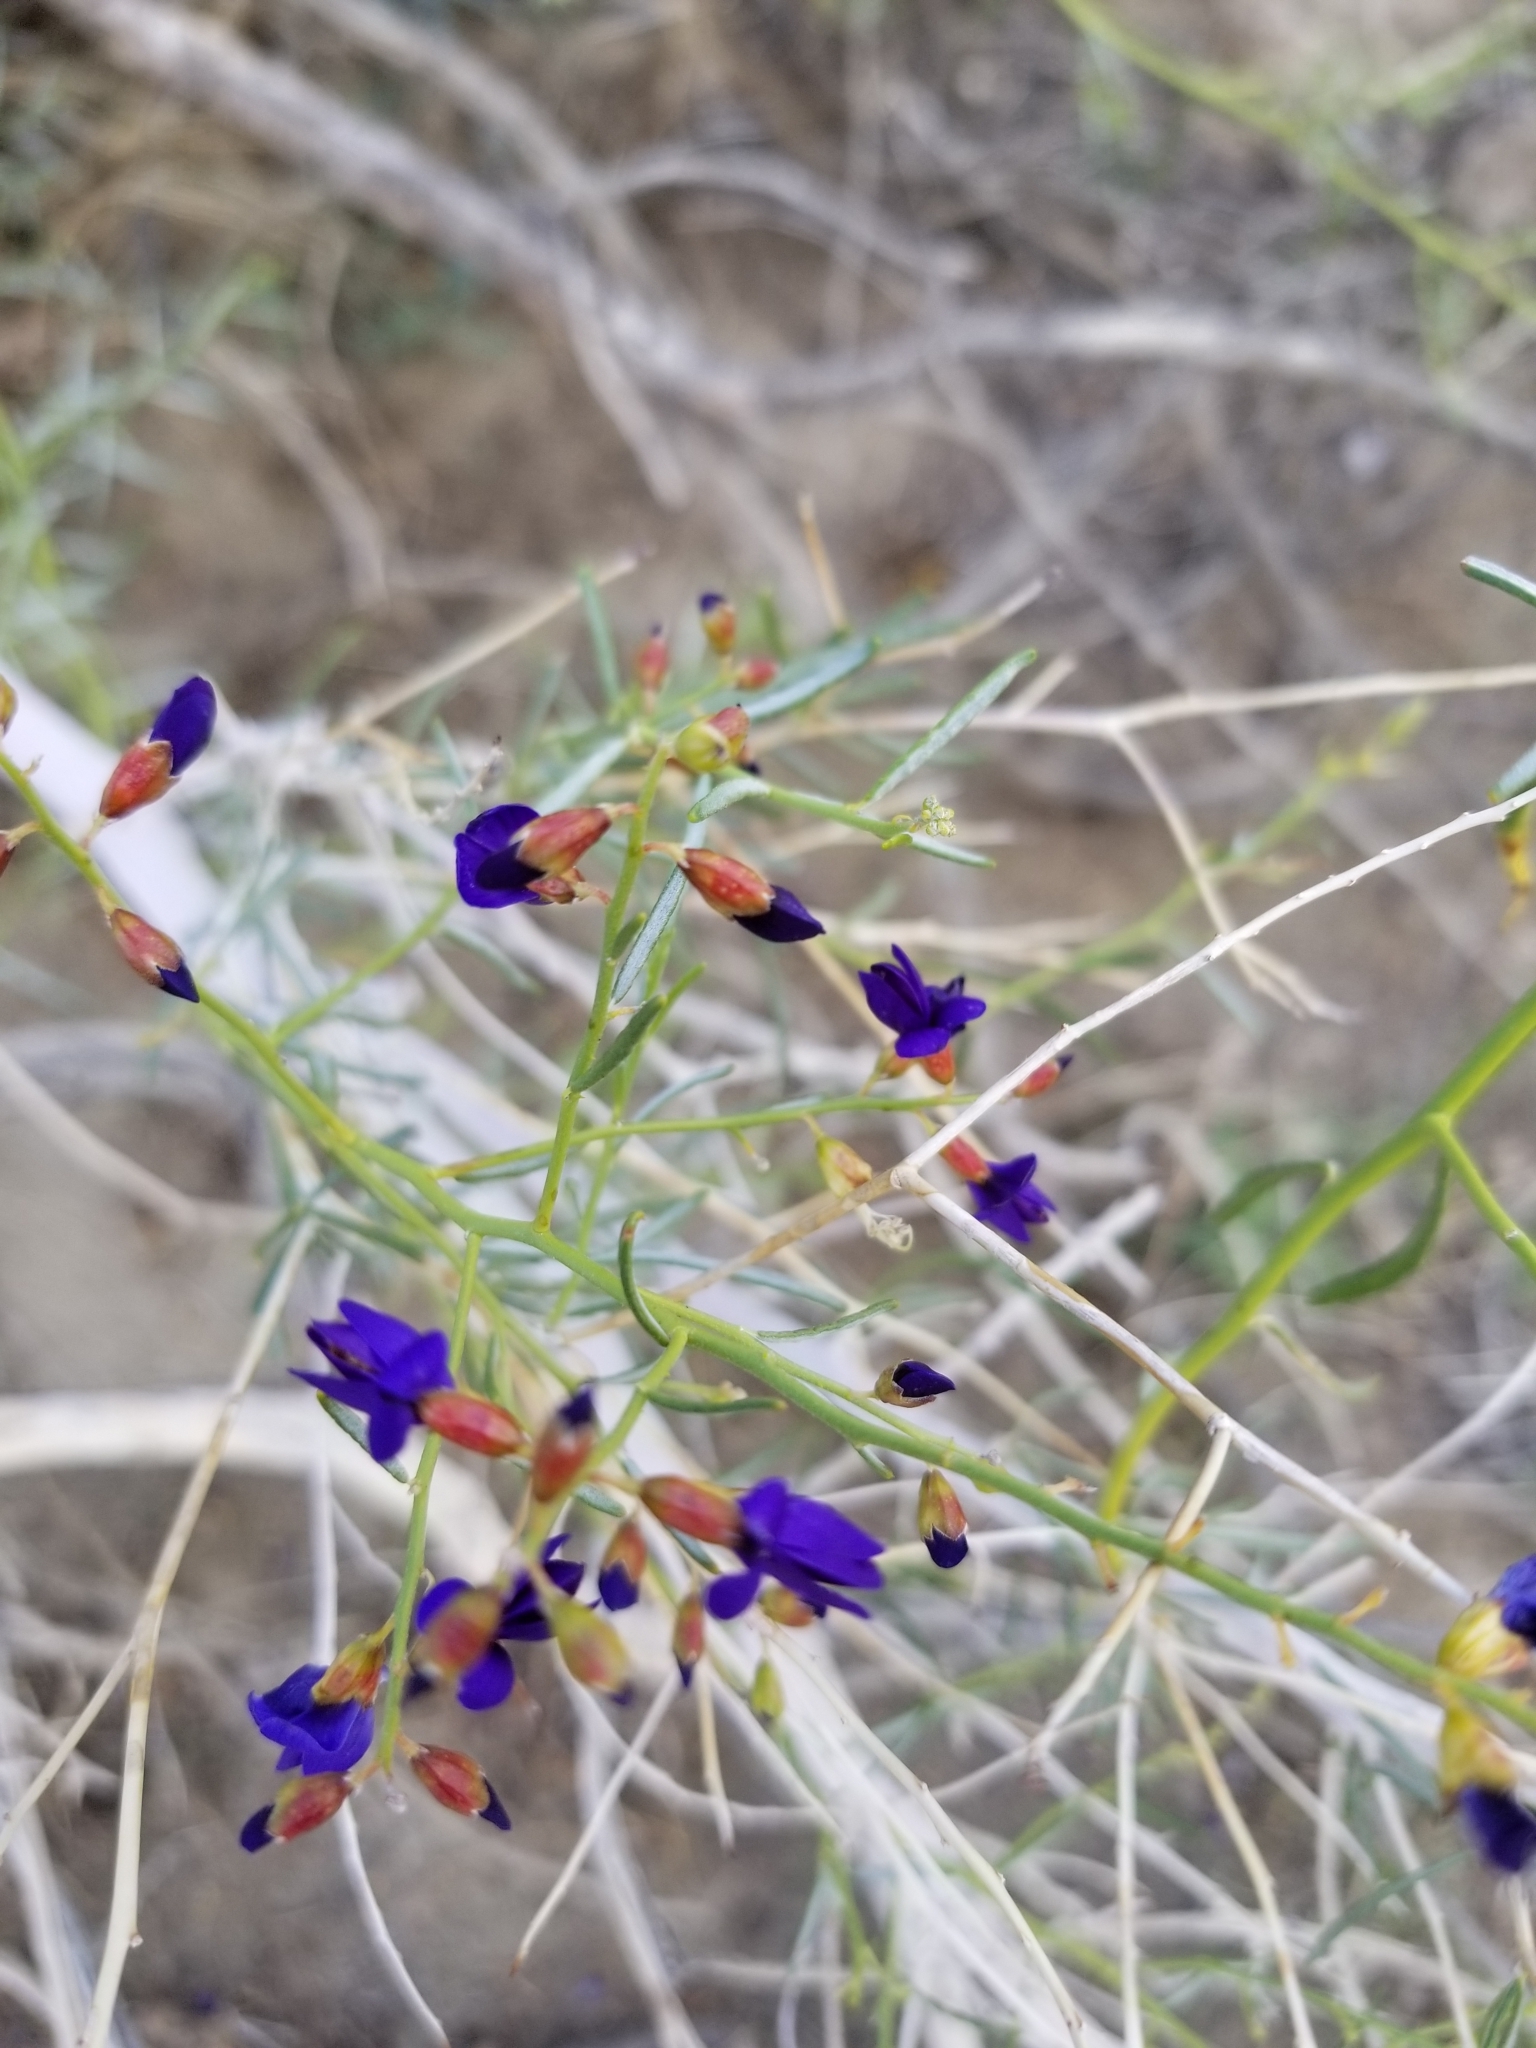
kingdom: Plantae
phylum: Tracheophyta
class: Magnoliopsida
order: Fabales
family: Fabaceae
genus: Psorothamnus
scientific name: Psorothamnus schottii
